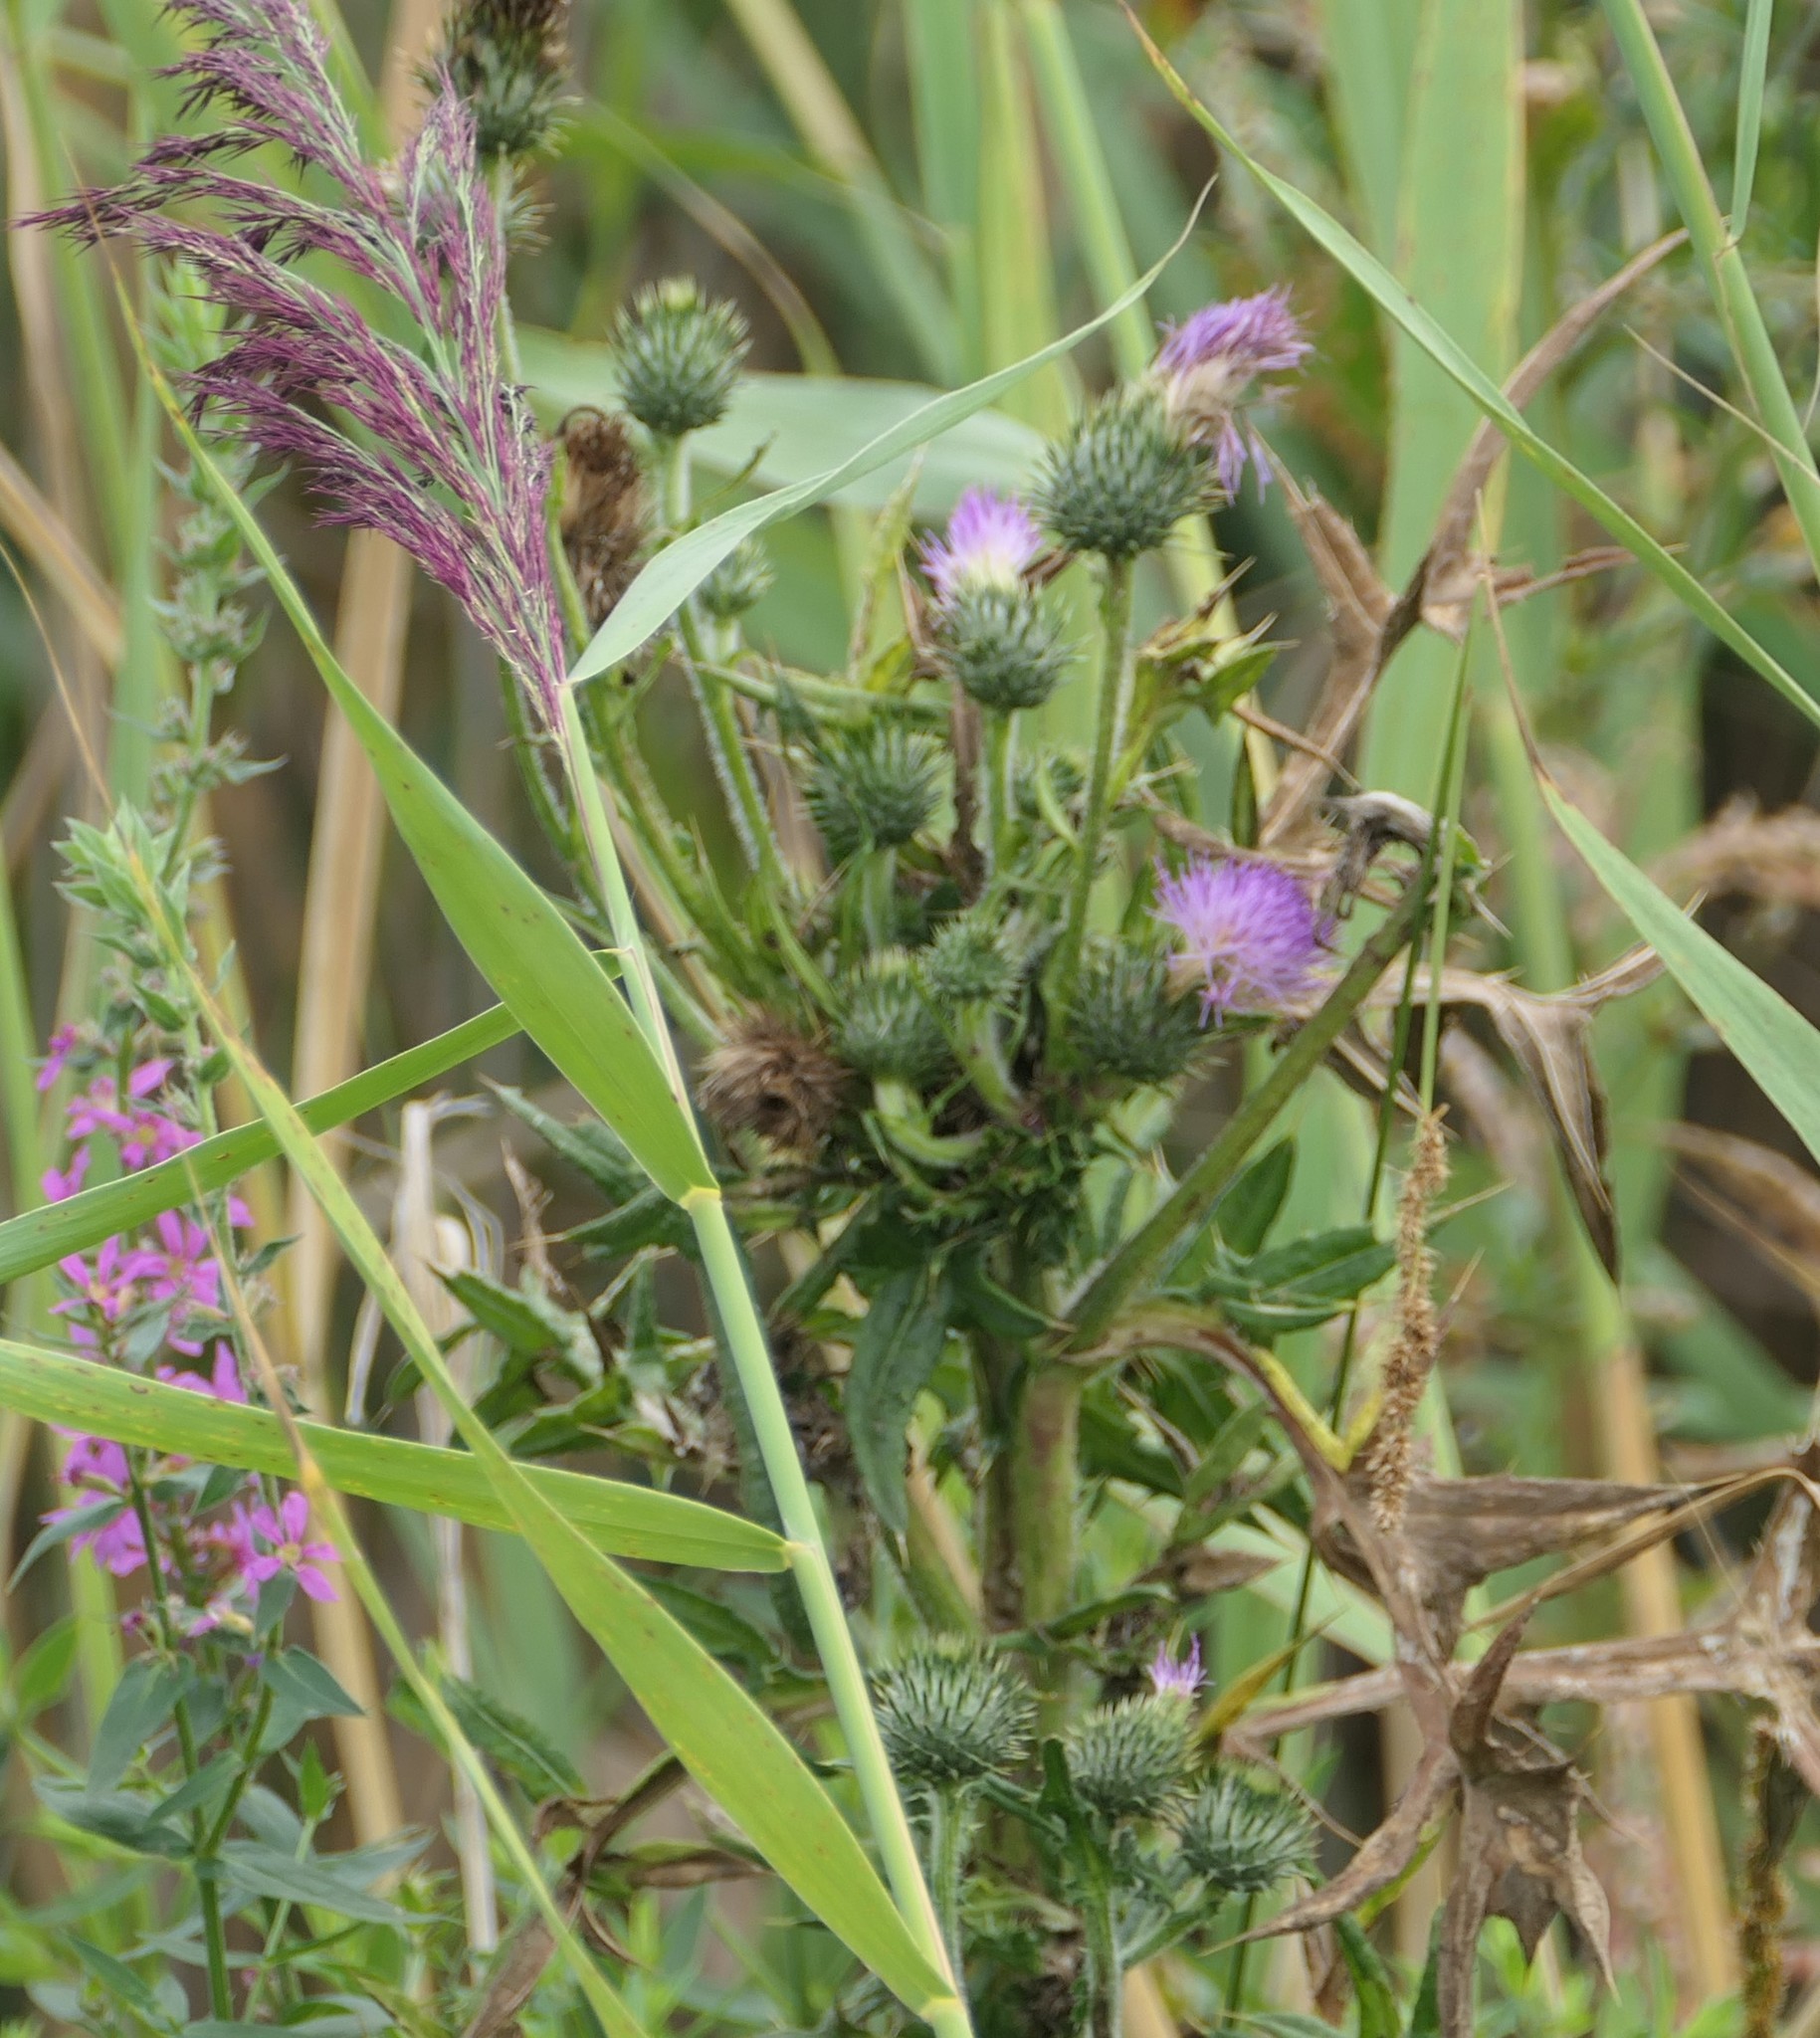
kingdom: Plantae
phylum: Tracheophyta
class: Magnoliopsida
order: Asterales
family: Asteraceae
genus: Cirsium
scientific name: Cirsium vulgare
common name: Bull thistle
